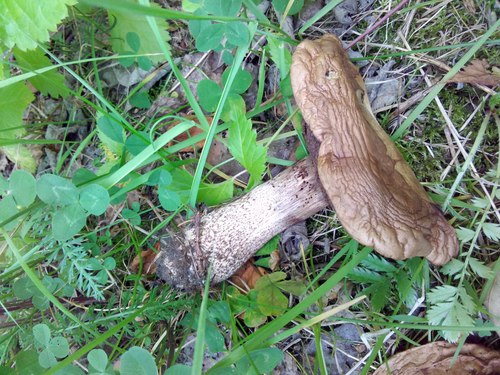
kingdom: Fungi
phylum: Basidiomycota
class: Agaricomycetes
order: Boletales
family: Boletaceae
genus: Leccinum
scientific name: Leccinum
